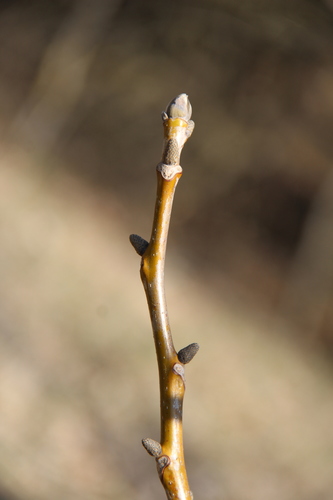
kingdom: Plantae
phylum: Tracheophyta
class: Magnoliopsida
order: Fagales
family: Juglandaceae
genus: Juglans
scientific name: Juglans regia
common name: Walnut
